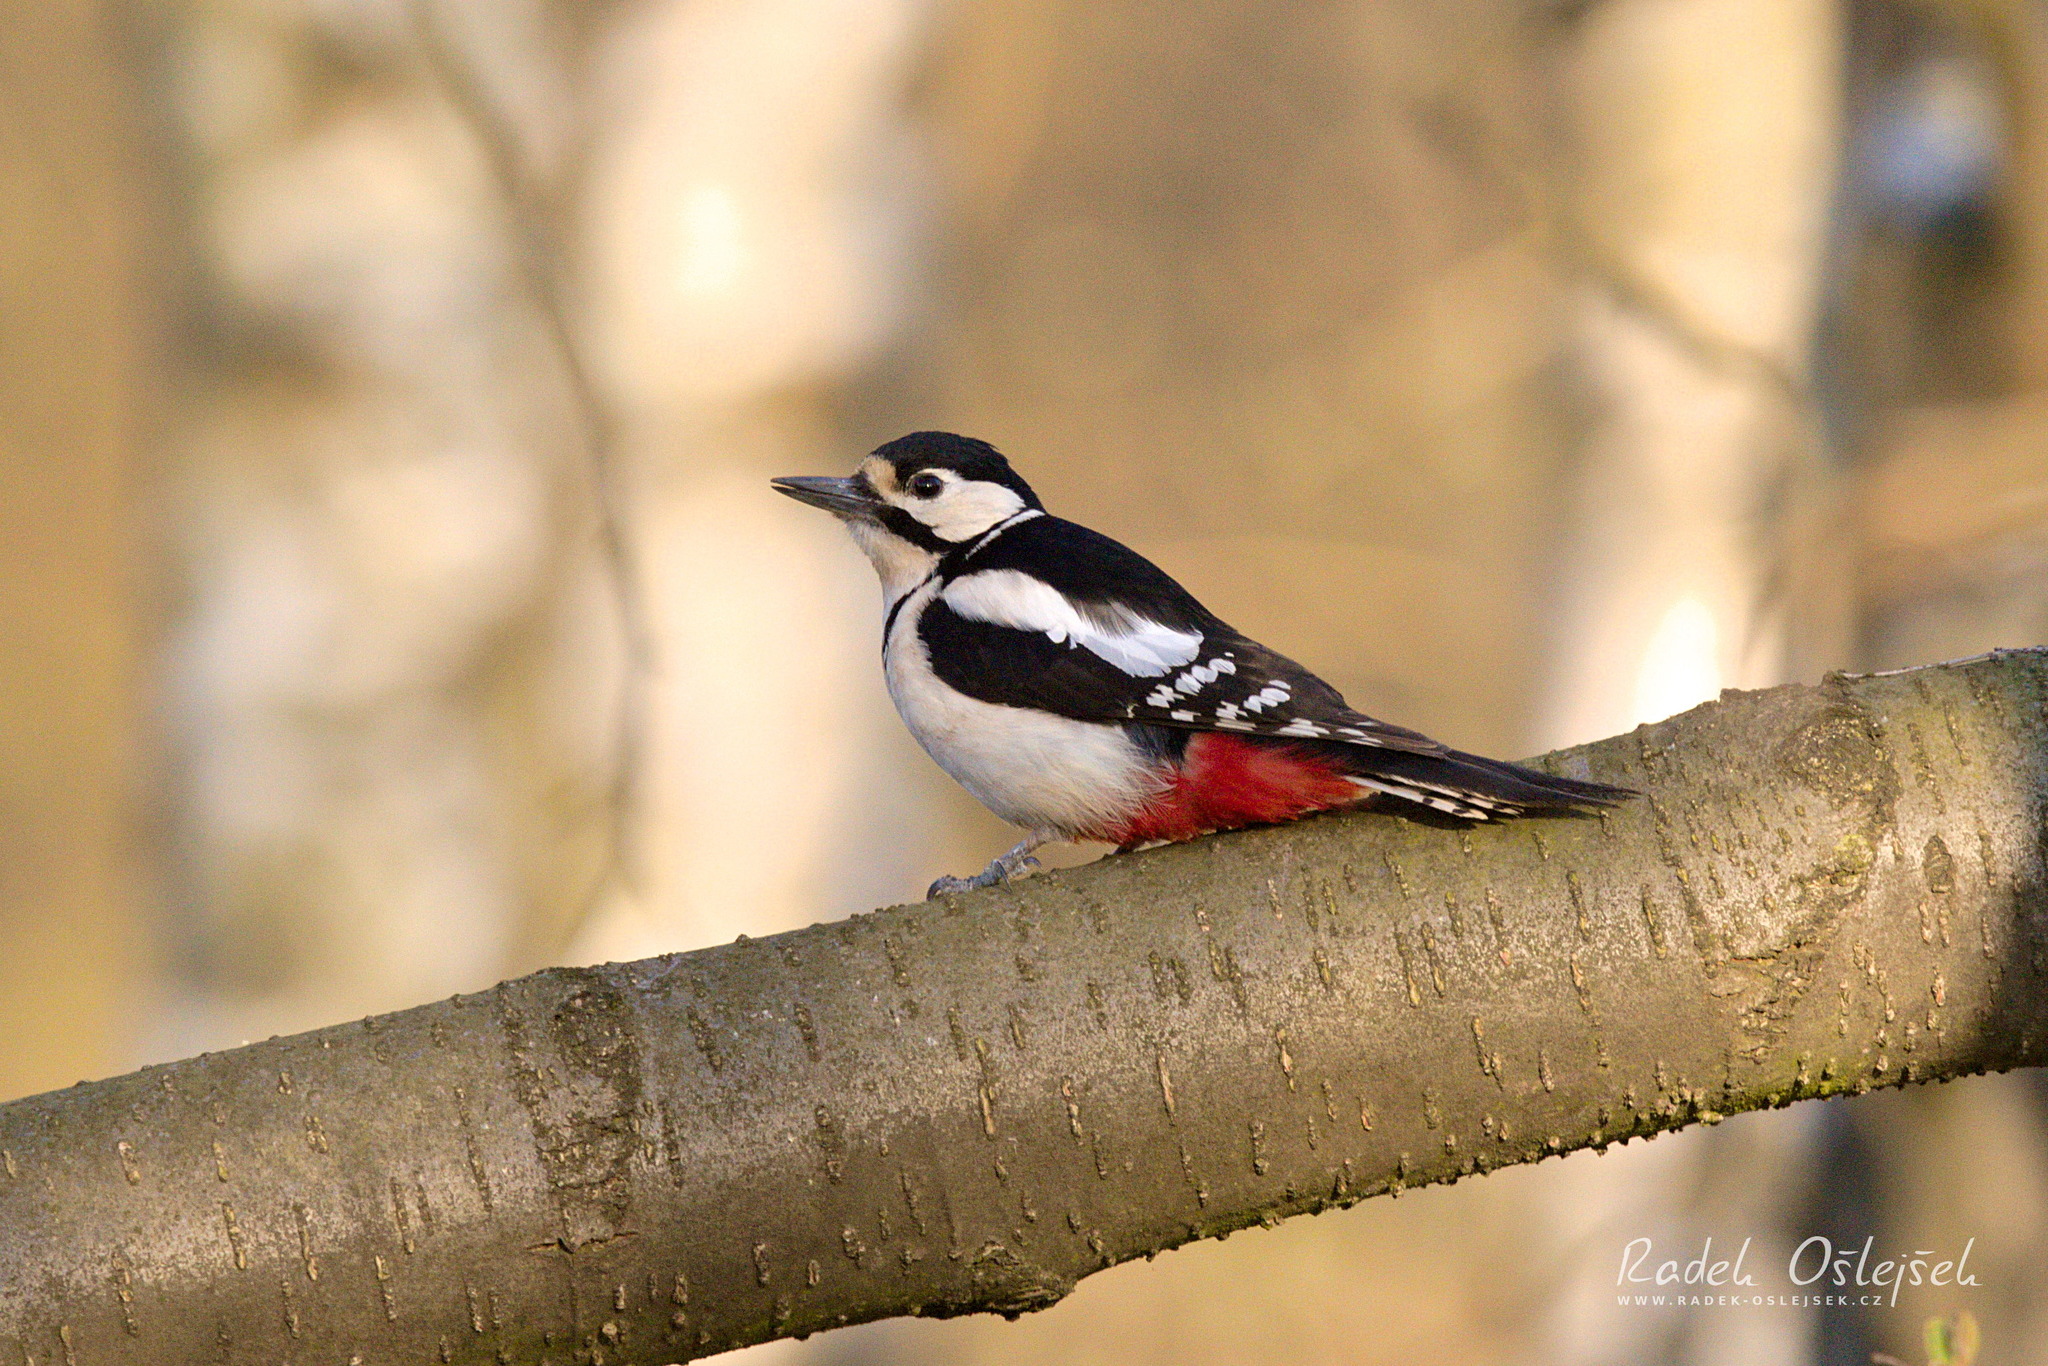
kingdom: Animalia
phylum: Chordata
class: Aves
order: Piciformes
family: Picidae
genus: Dendrocopos
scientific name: Dendrocopos major
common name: Great spotted woodpecker
